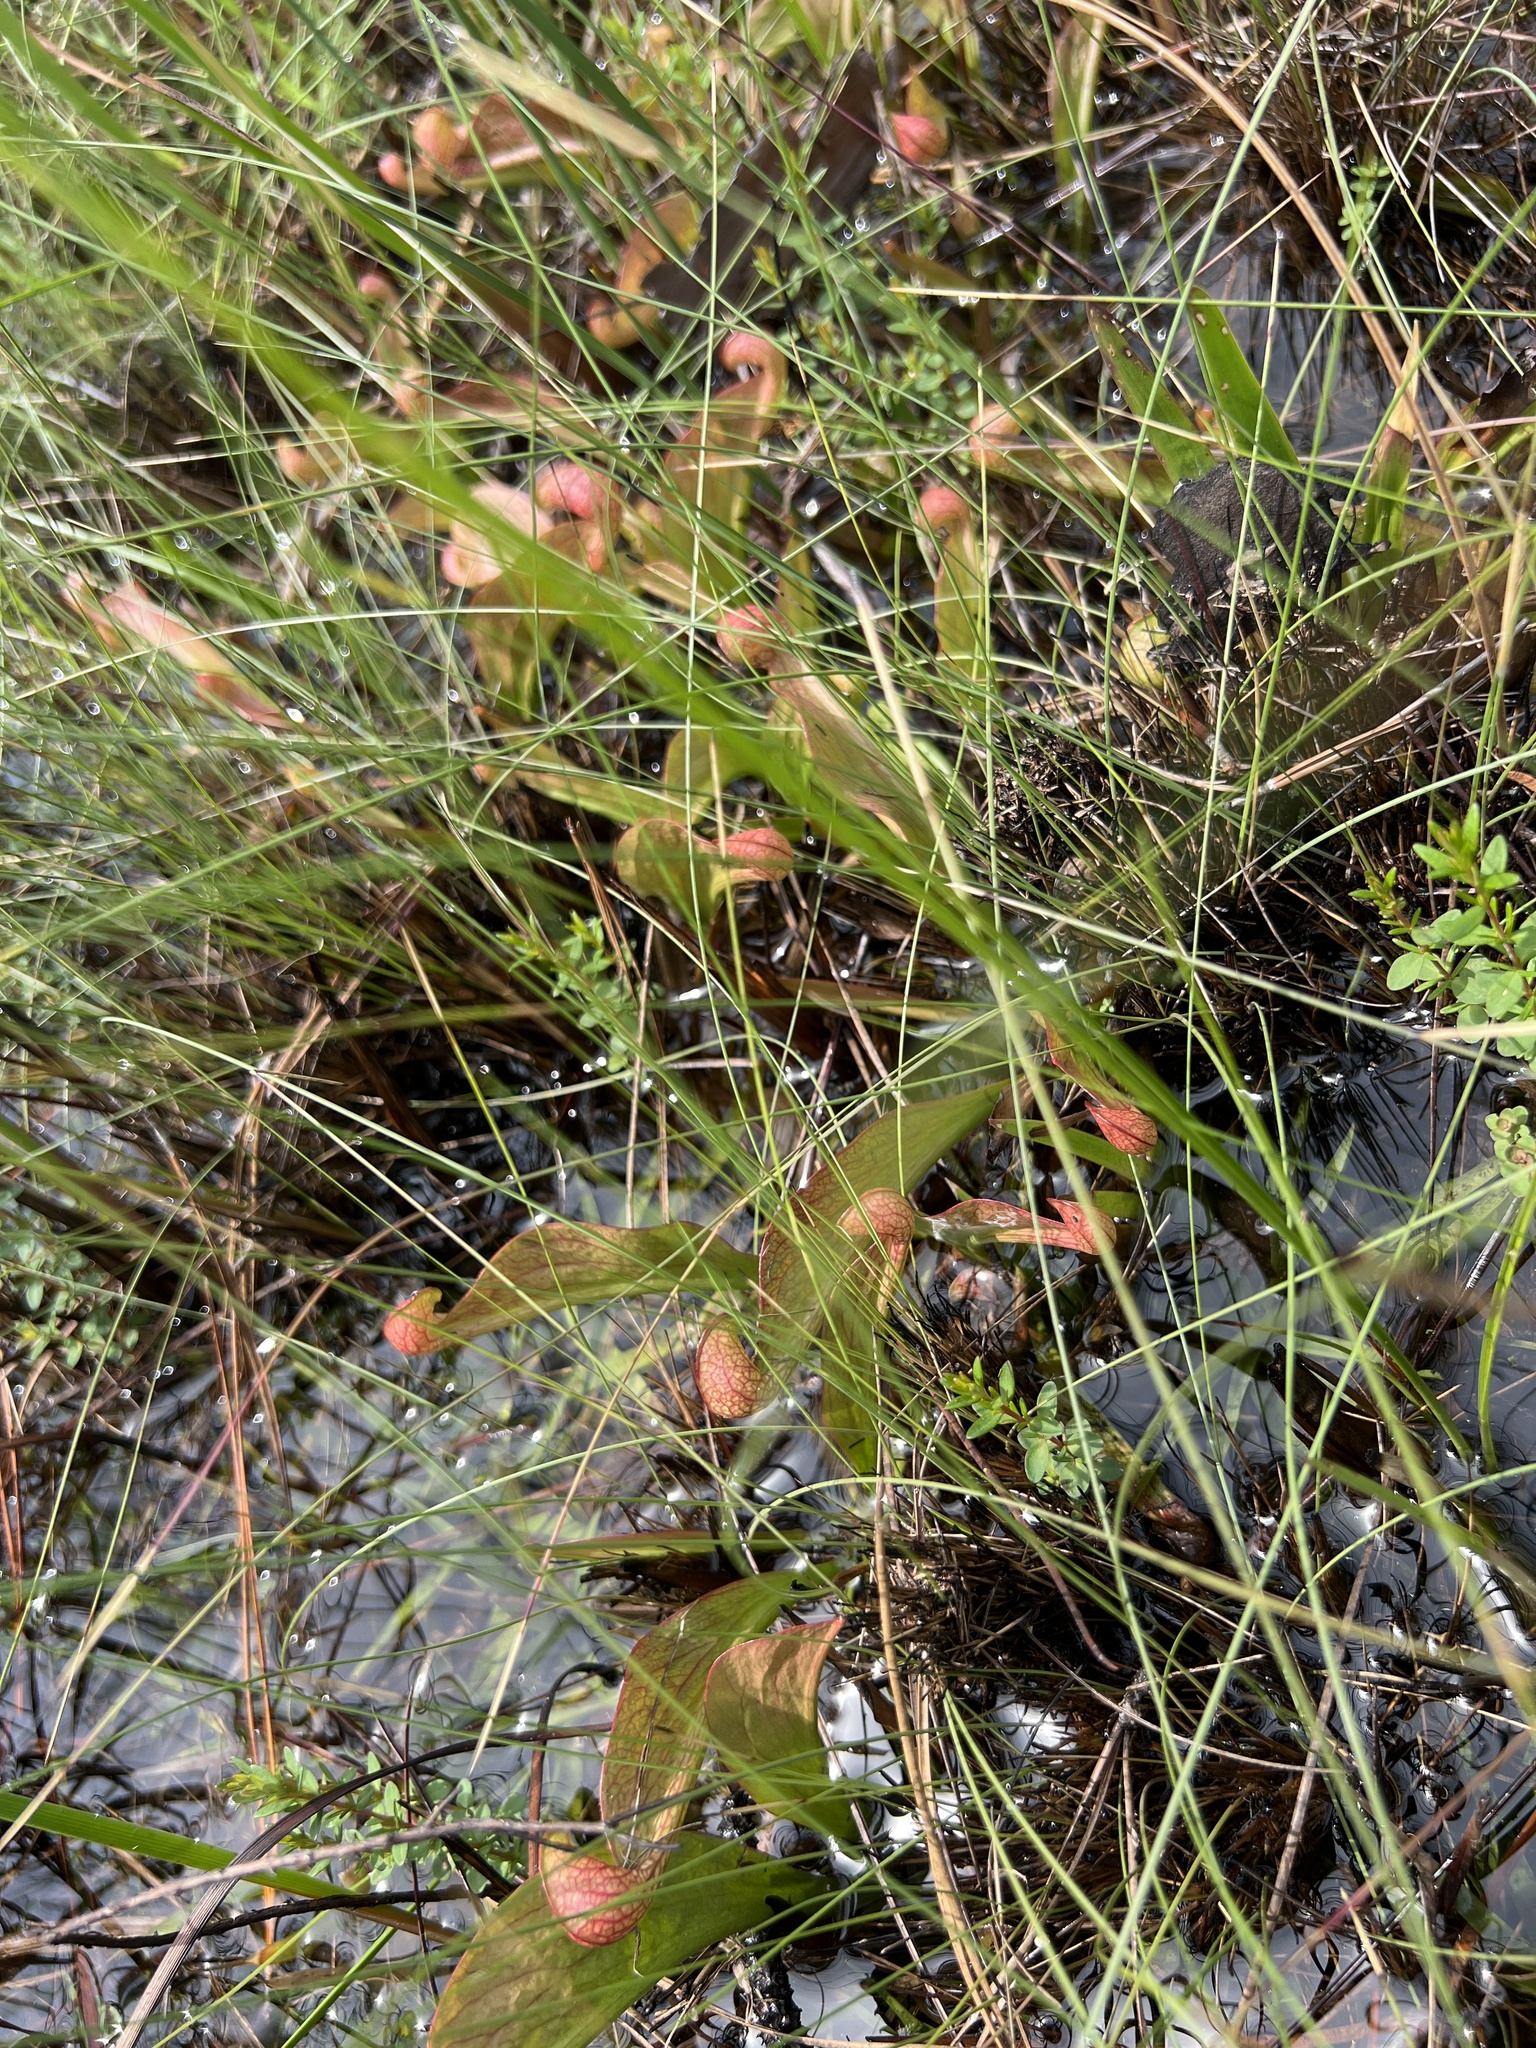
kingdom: Plantae
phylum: Tracheophyta
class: Magnoliopsida
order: Ericales
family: Sarraceniaceae
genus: Sarracenia
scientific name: Sarracenia psittacina
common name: Parrot pitcherplant
